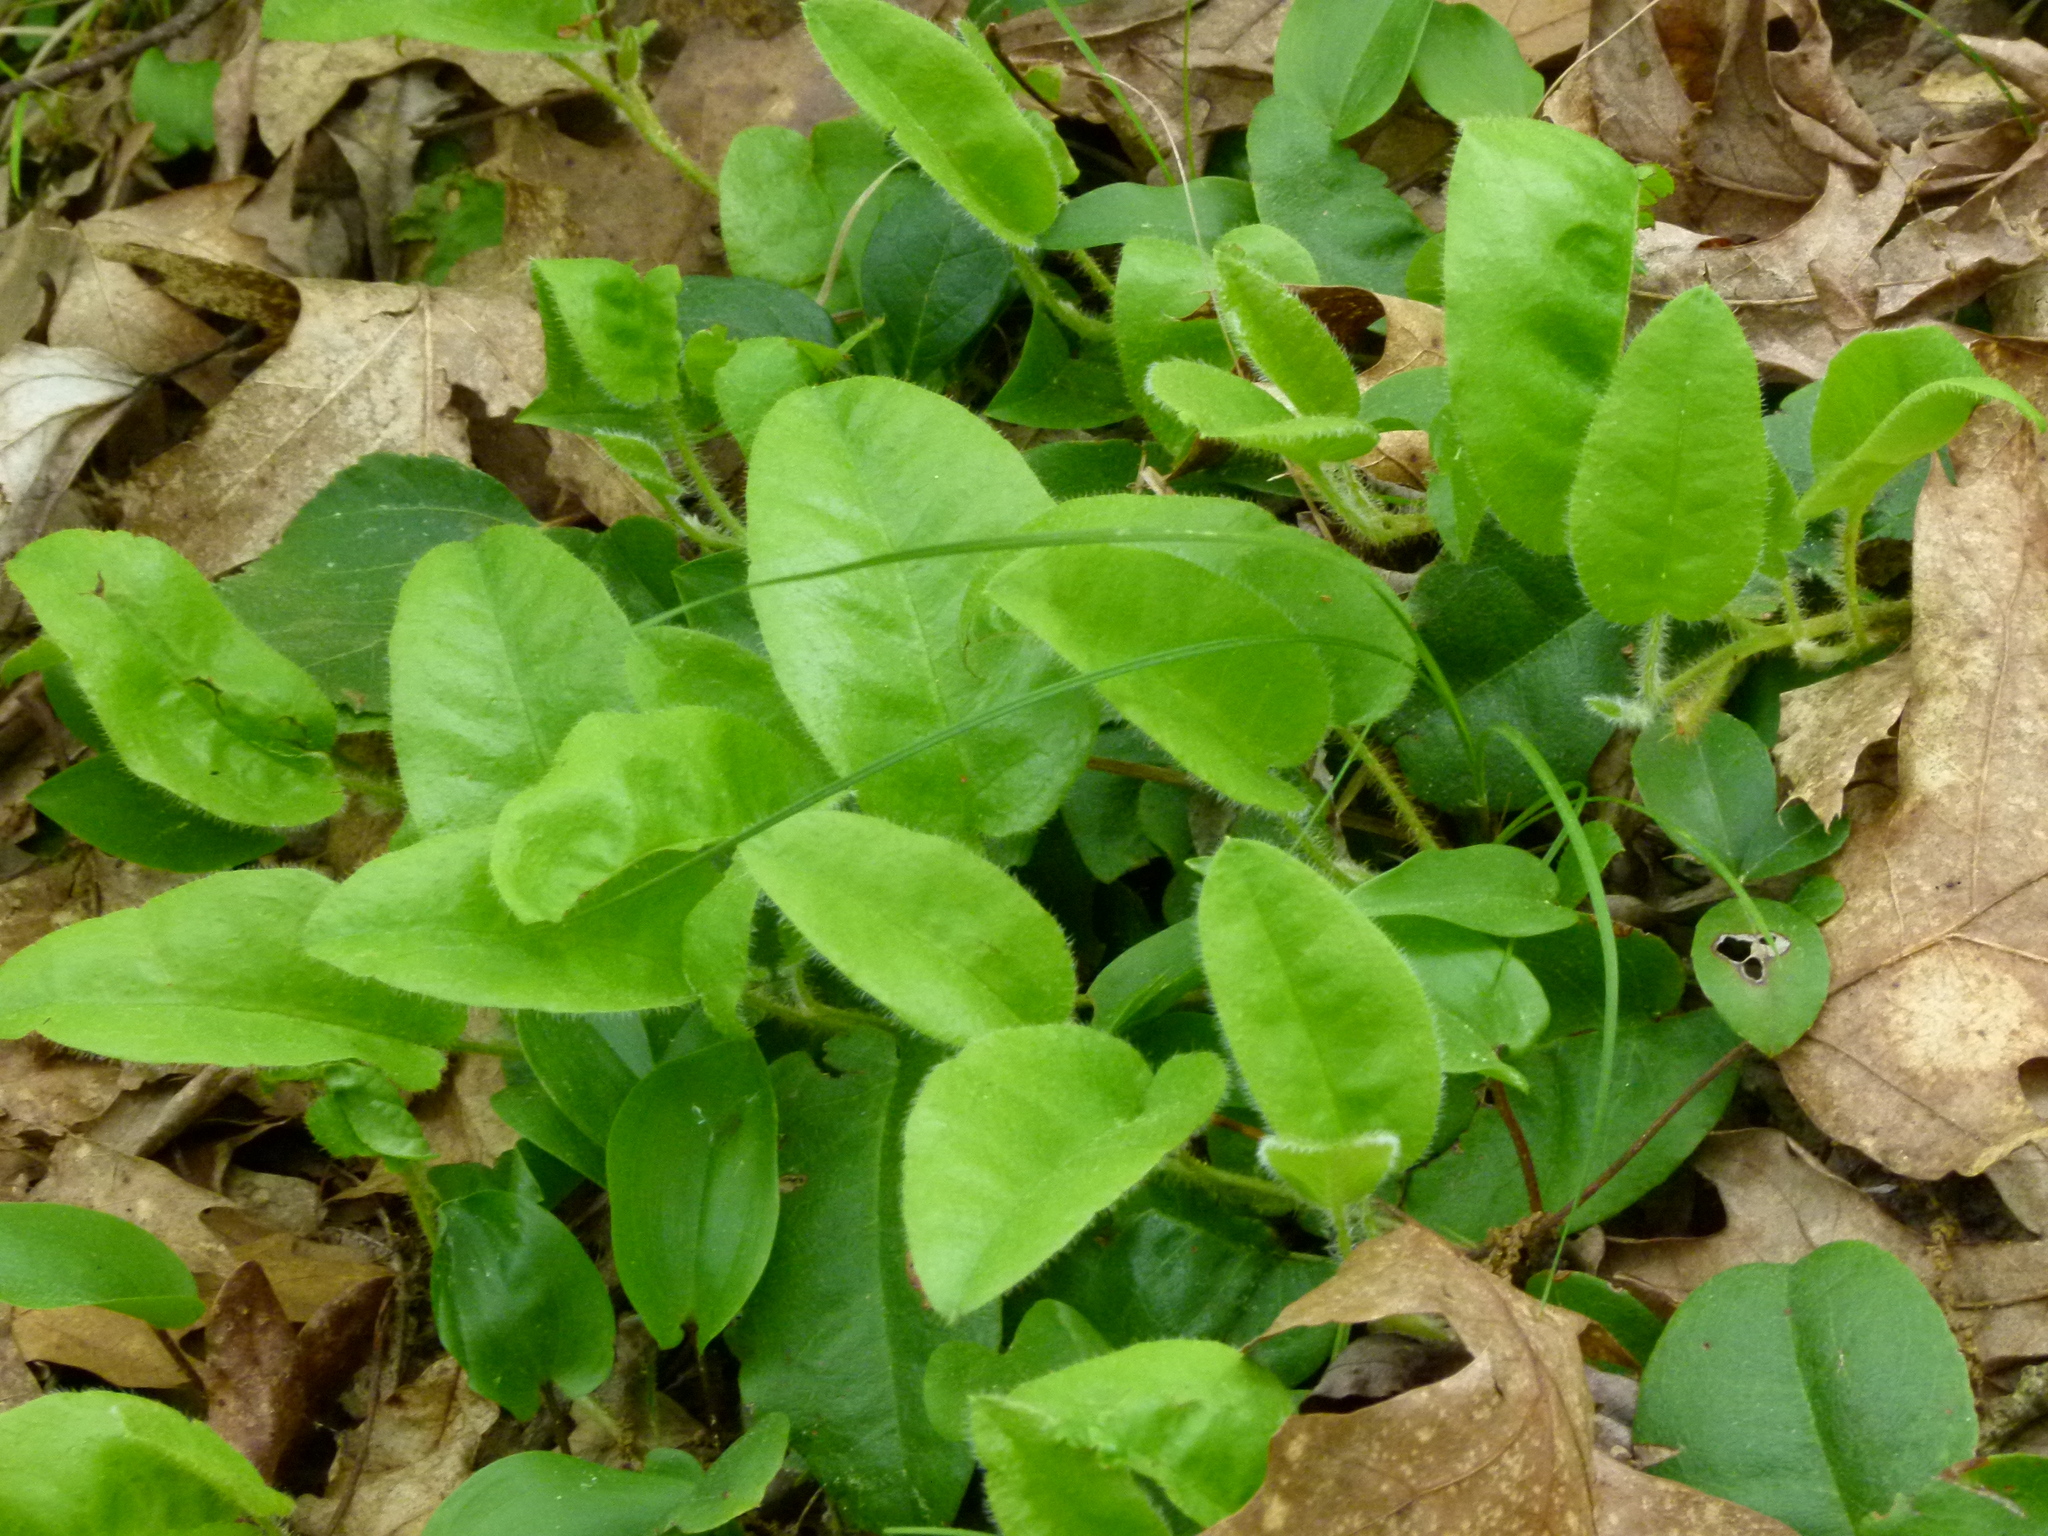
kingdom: Plantae
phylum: Tracheophyta
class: Magnoliopsida
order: Ericales
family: Ericaceae
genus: Epigaea
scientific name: Epigaea repens
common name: Gravelroot
